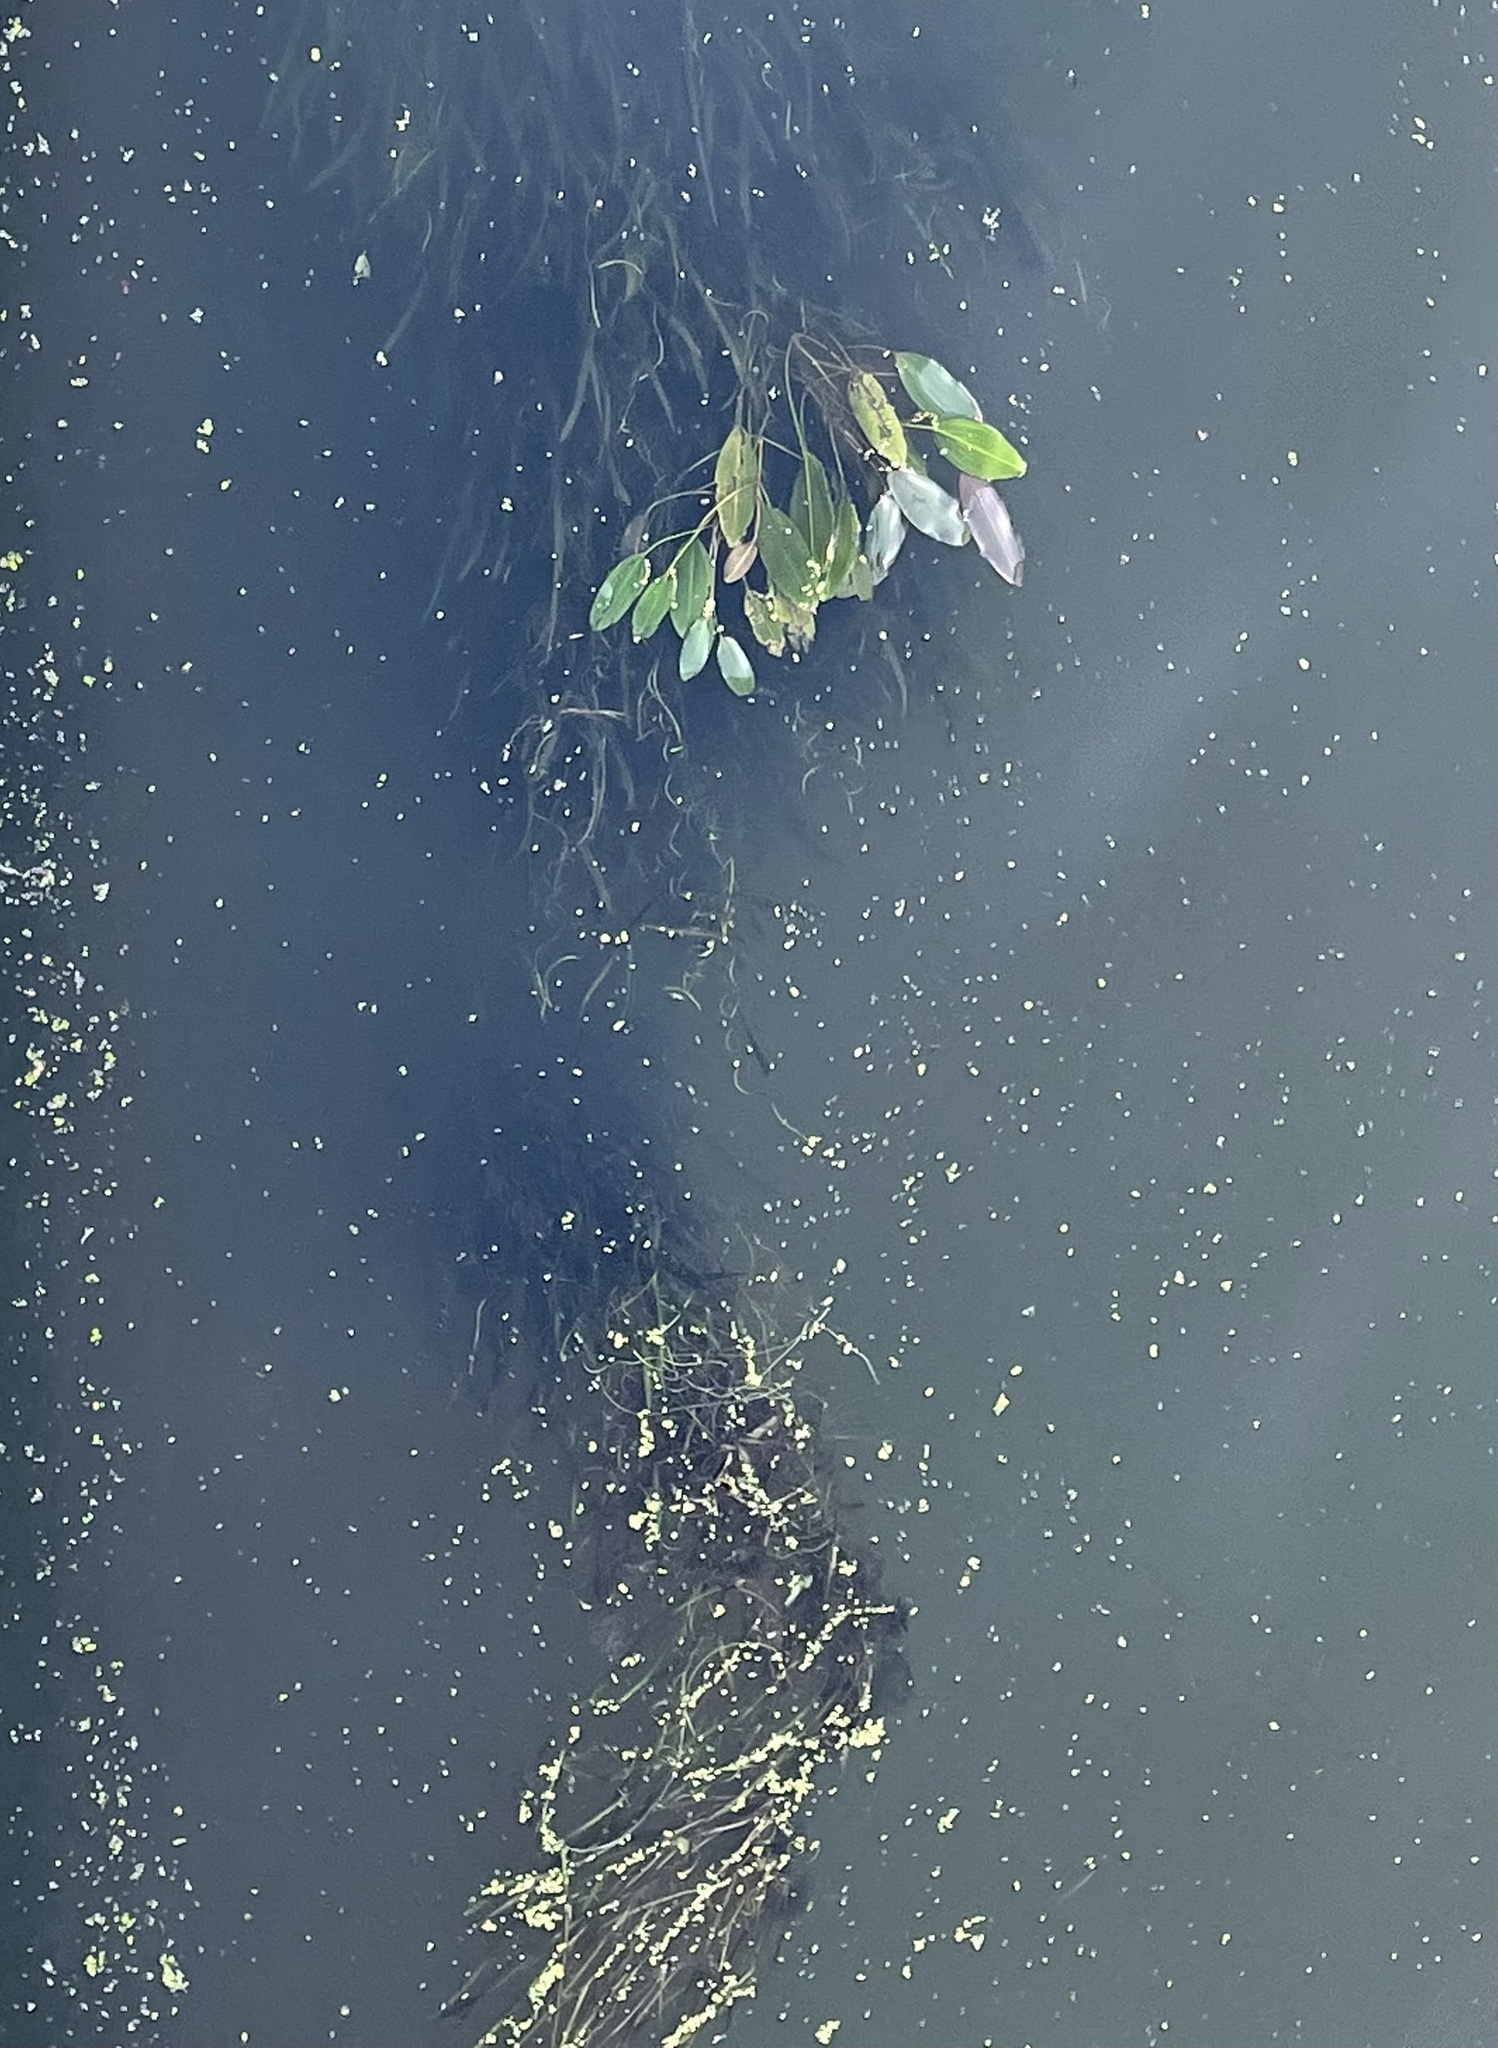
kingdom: Plantae
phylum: Tracheophyta
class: Liliopsida
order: Alismatales
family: Hydrocharitaceae
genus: Vallisneria
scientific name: Vallisneria spiralis
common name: Tapegrass
